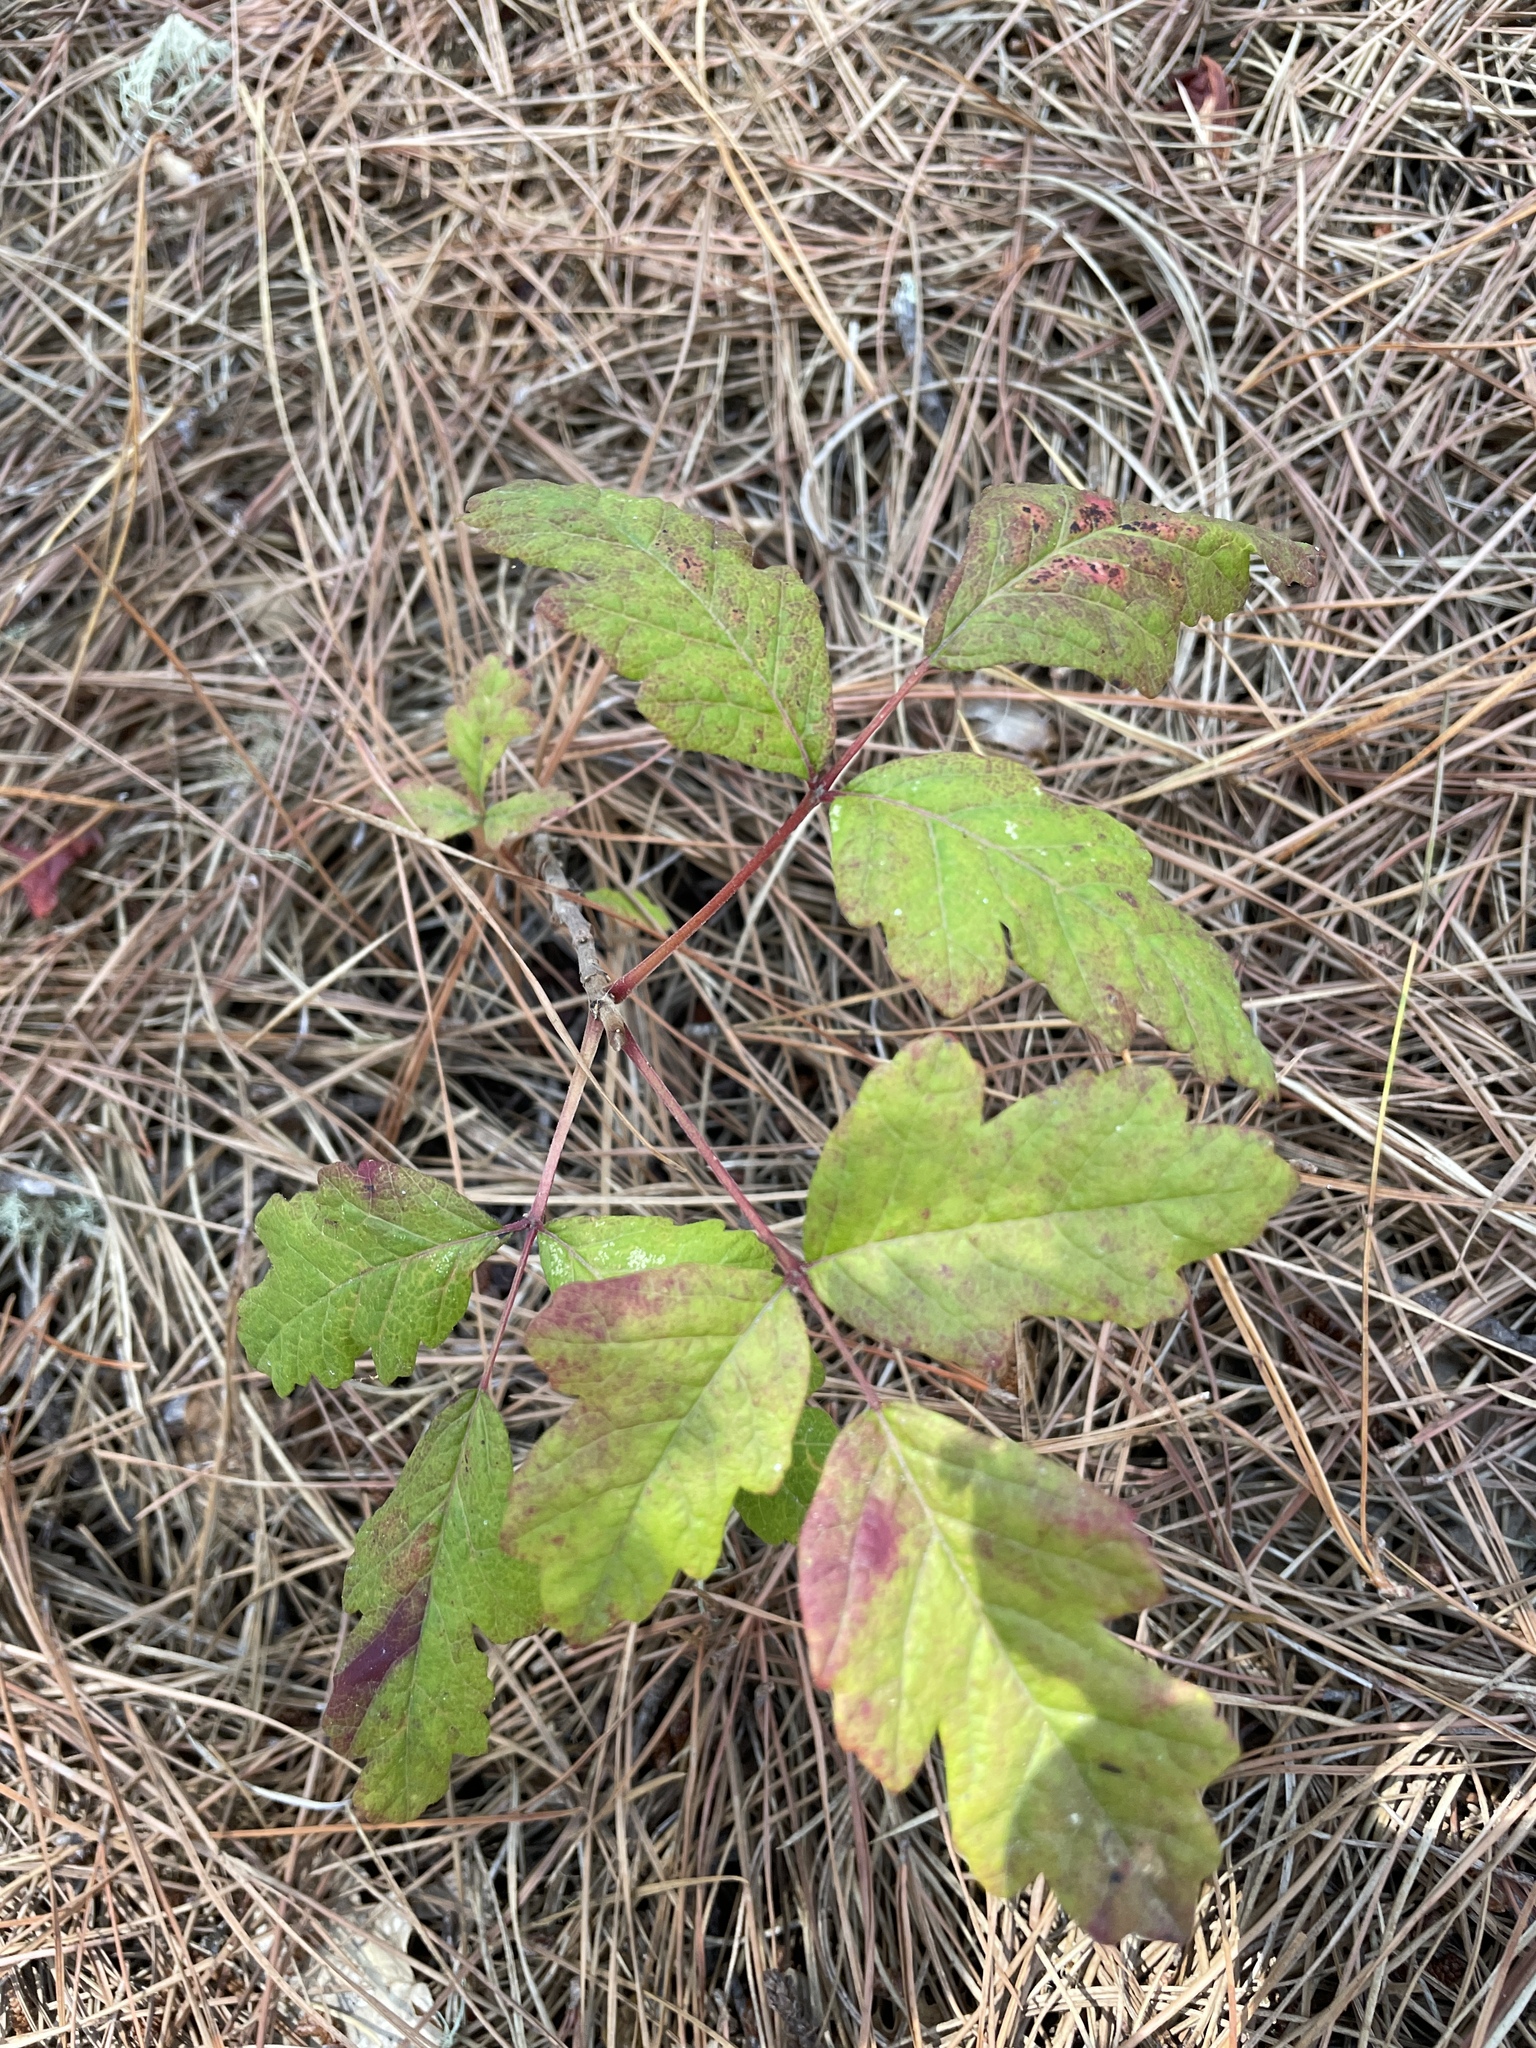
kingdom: Plantae
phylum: Tracheophyta
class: Magnoliopsida
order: Sapindales
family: Anacardiaceae
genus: Toxicodendron
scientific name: Toxicodendron diversilobum
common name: Pacific poison-oak
